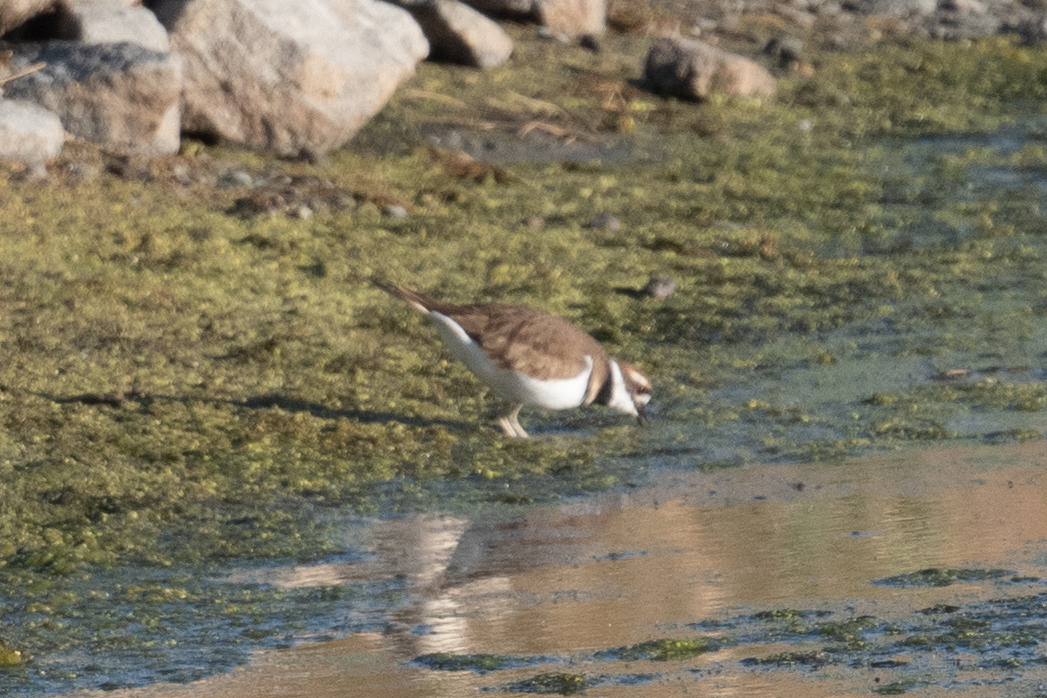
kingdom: Animalia
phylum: Chordata
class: Aves
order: Charadriiformes
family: Charadriidae
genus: Charadrius
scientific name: Charadrius vociferus
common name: Killdeer
